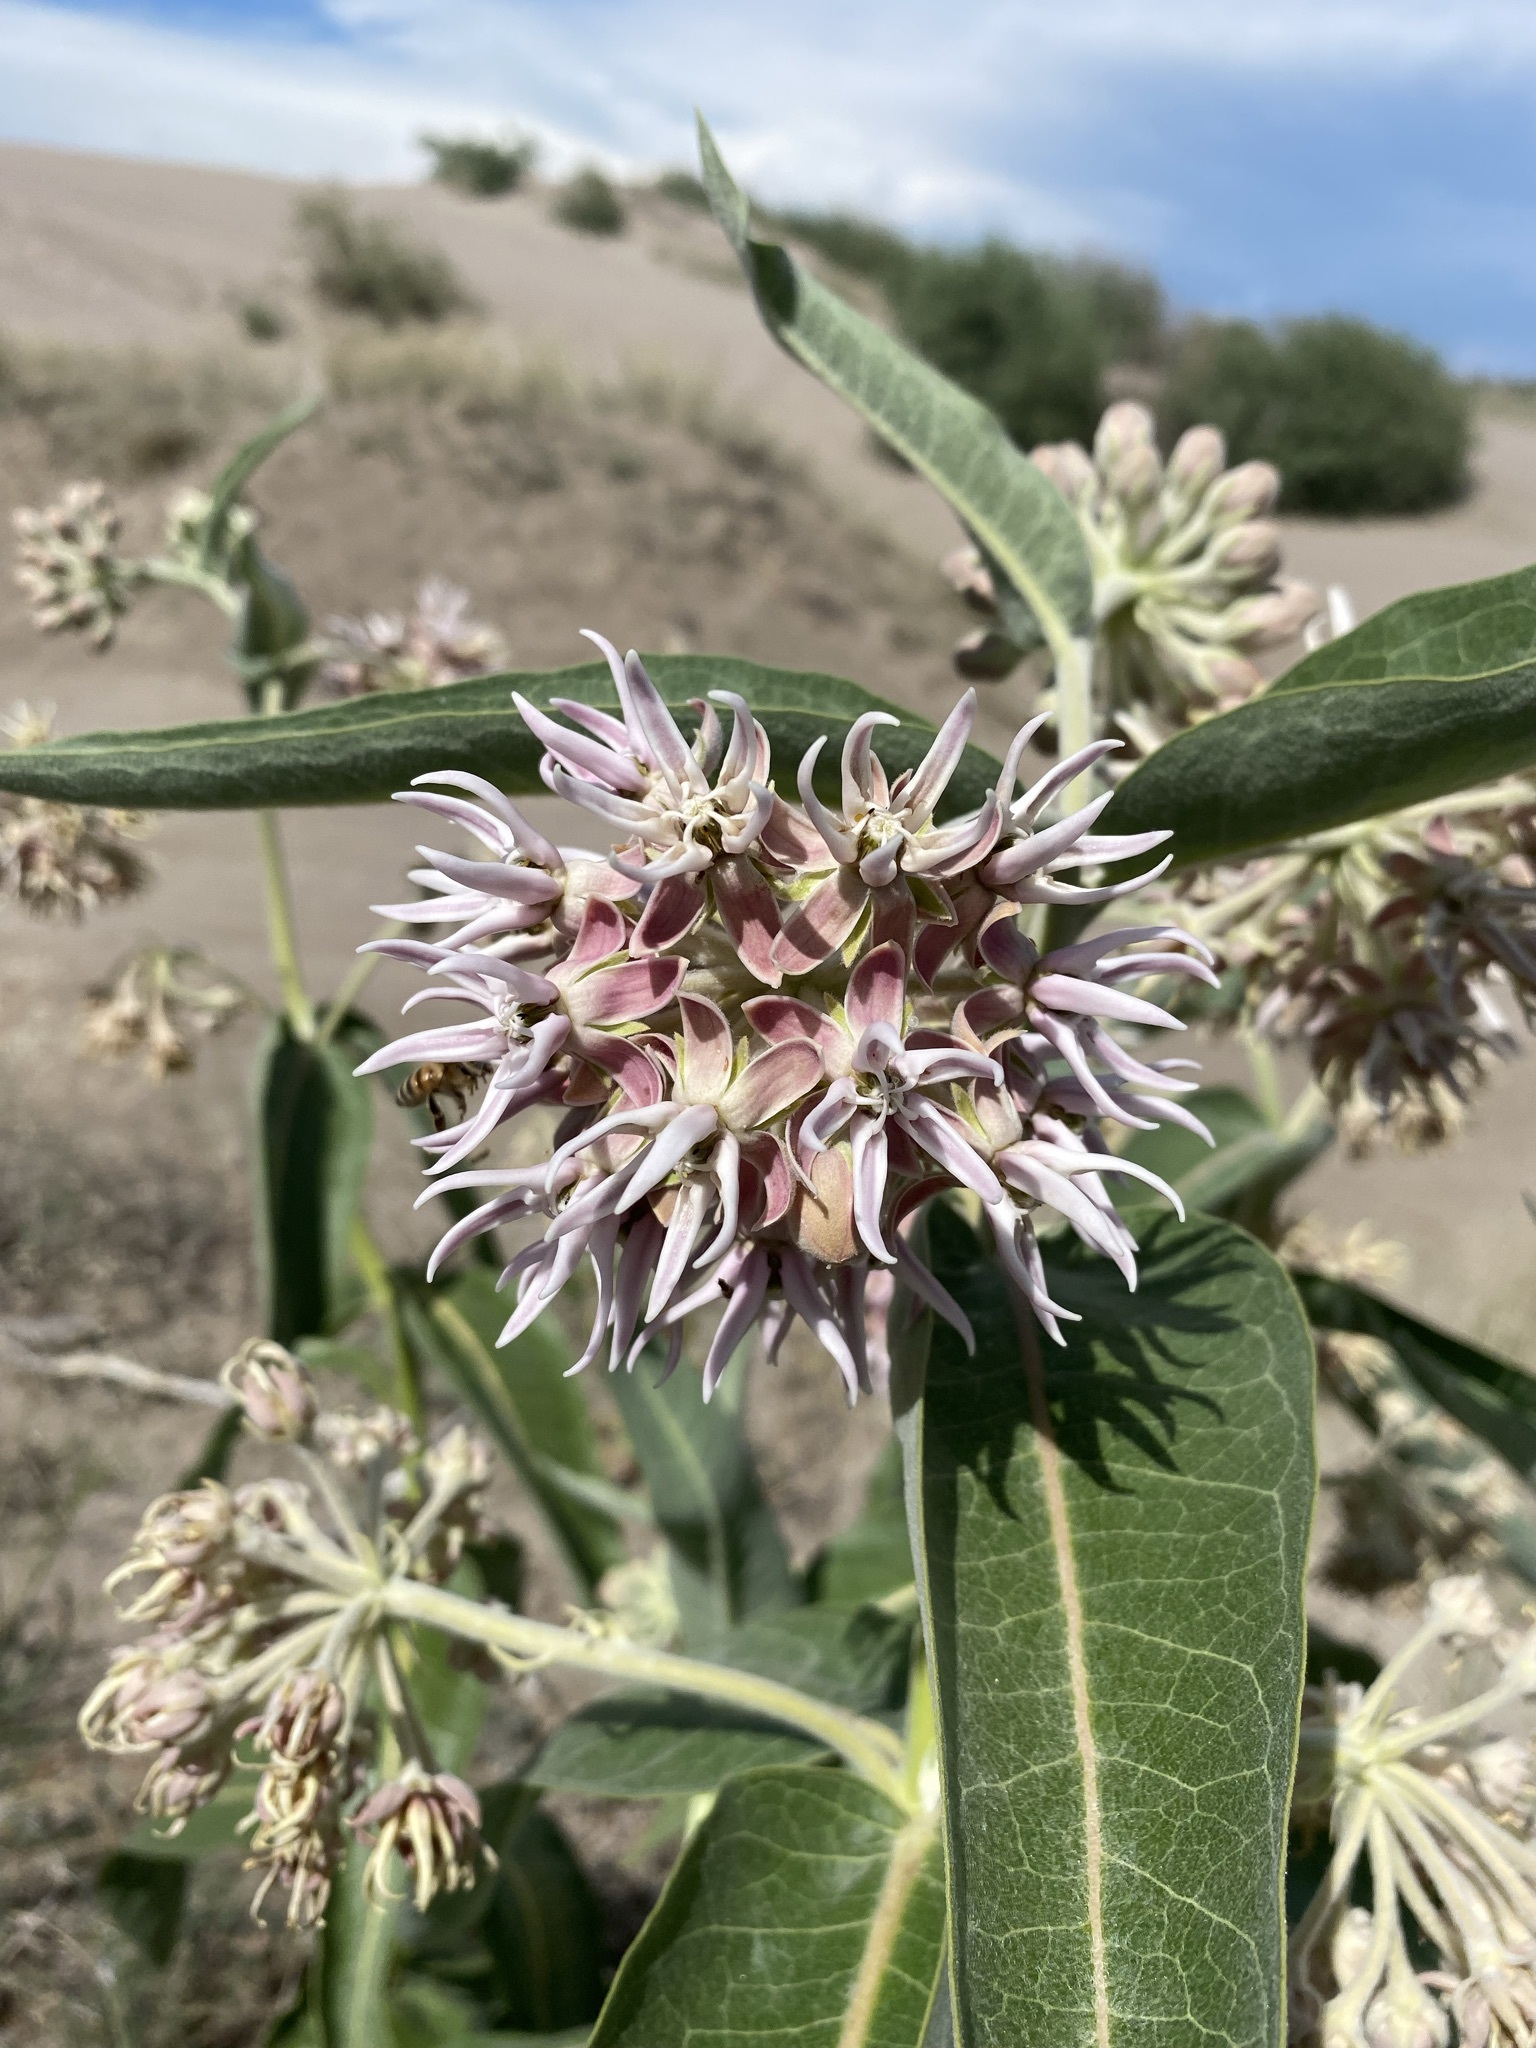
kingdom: Plantae
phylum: Tracheophyta
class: Magnoliopsida
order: Gentianales
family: Apocynaceae
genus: Asclepias
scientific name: Asclepias speciosa
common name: Showy milkweed
